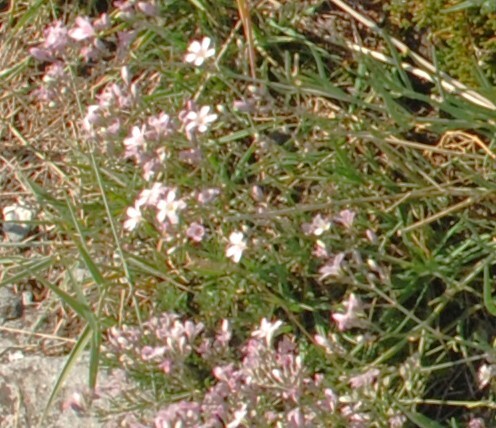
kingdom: Plantae
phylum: Tracheophyta
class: Magnoliopsida
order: Caryophyllales
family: Caryophyllaceae
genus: Gypsophila
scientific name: Gypsophila patrinii
